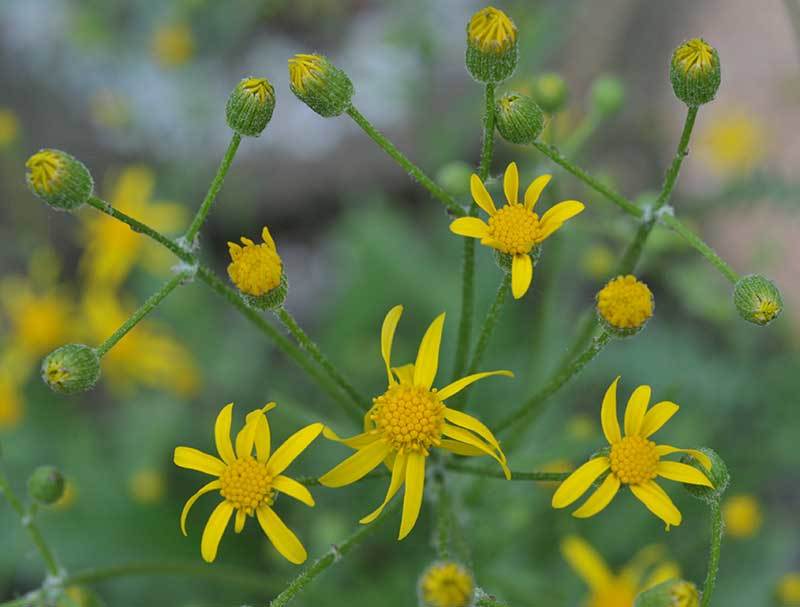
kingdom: Plantae
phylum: Tracheophyta
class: Magnoliopsida
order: Asterales
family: Asteraceae
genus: Packera
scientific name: Packera paupercula
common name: Balsam groundsel
